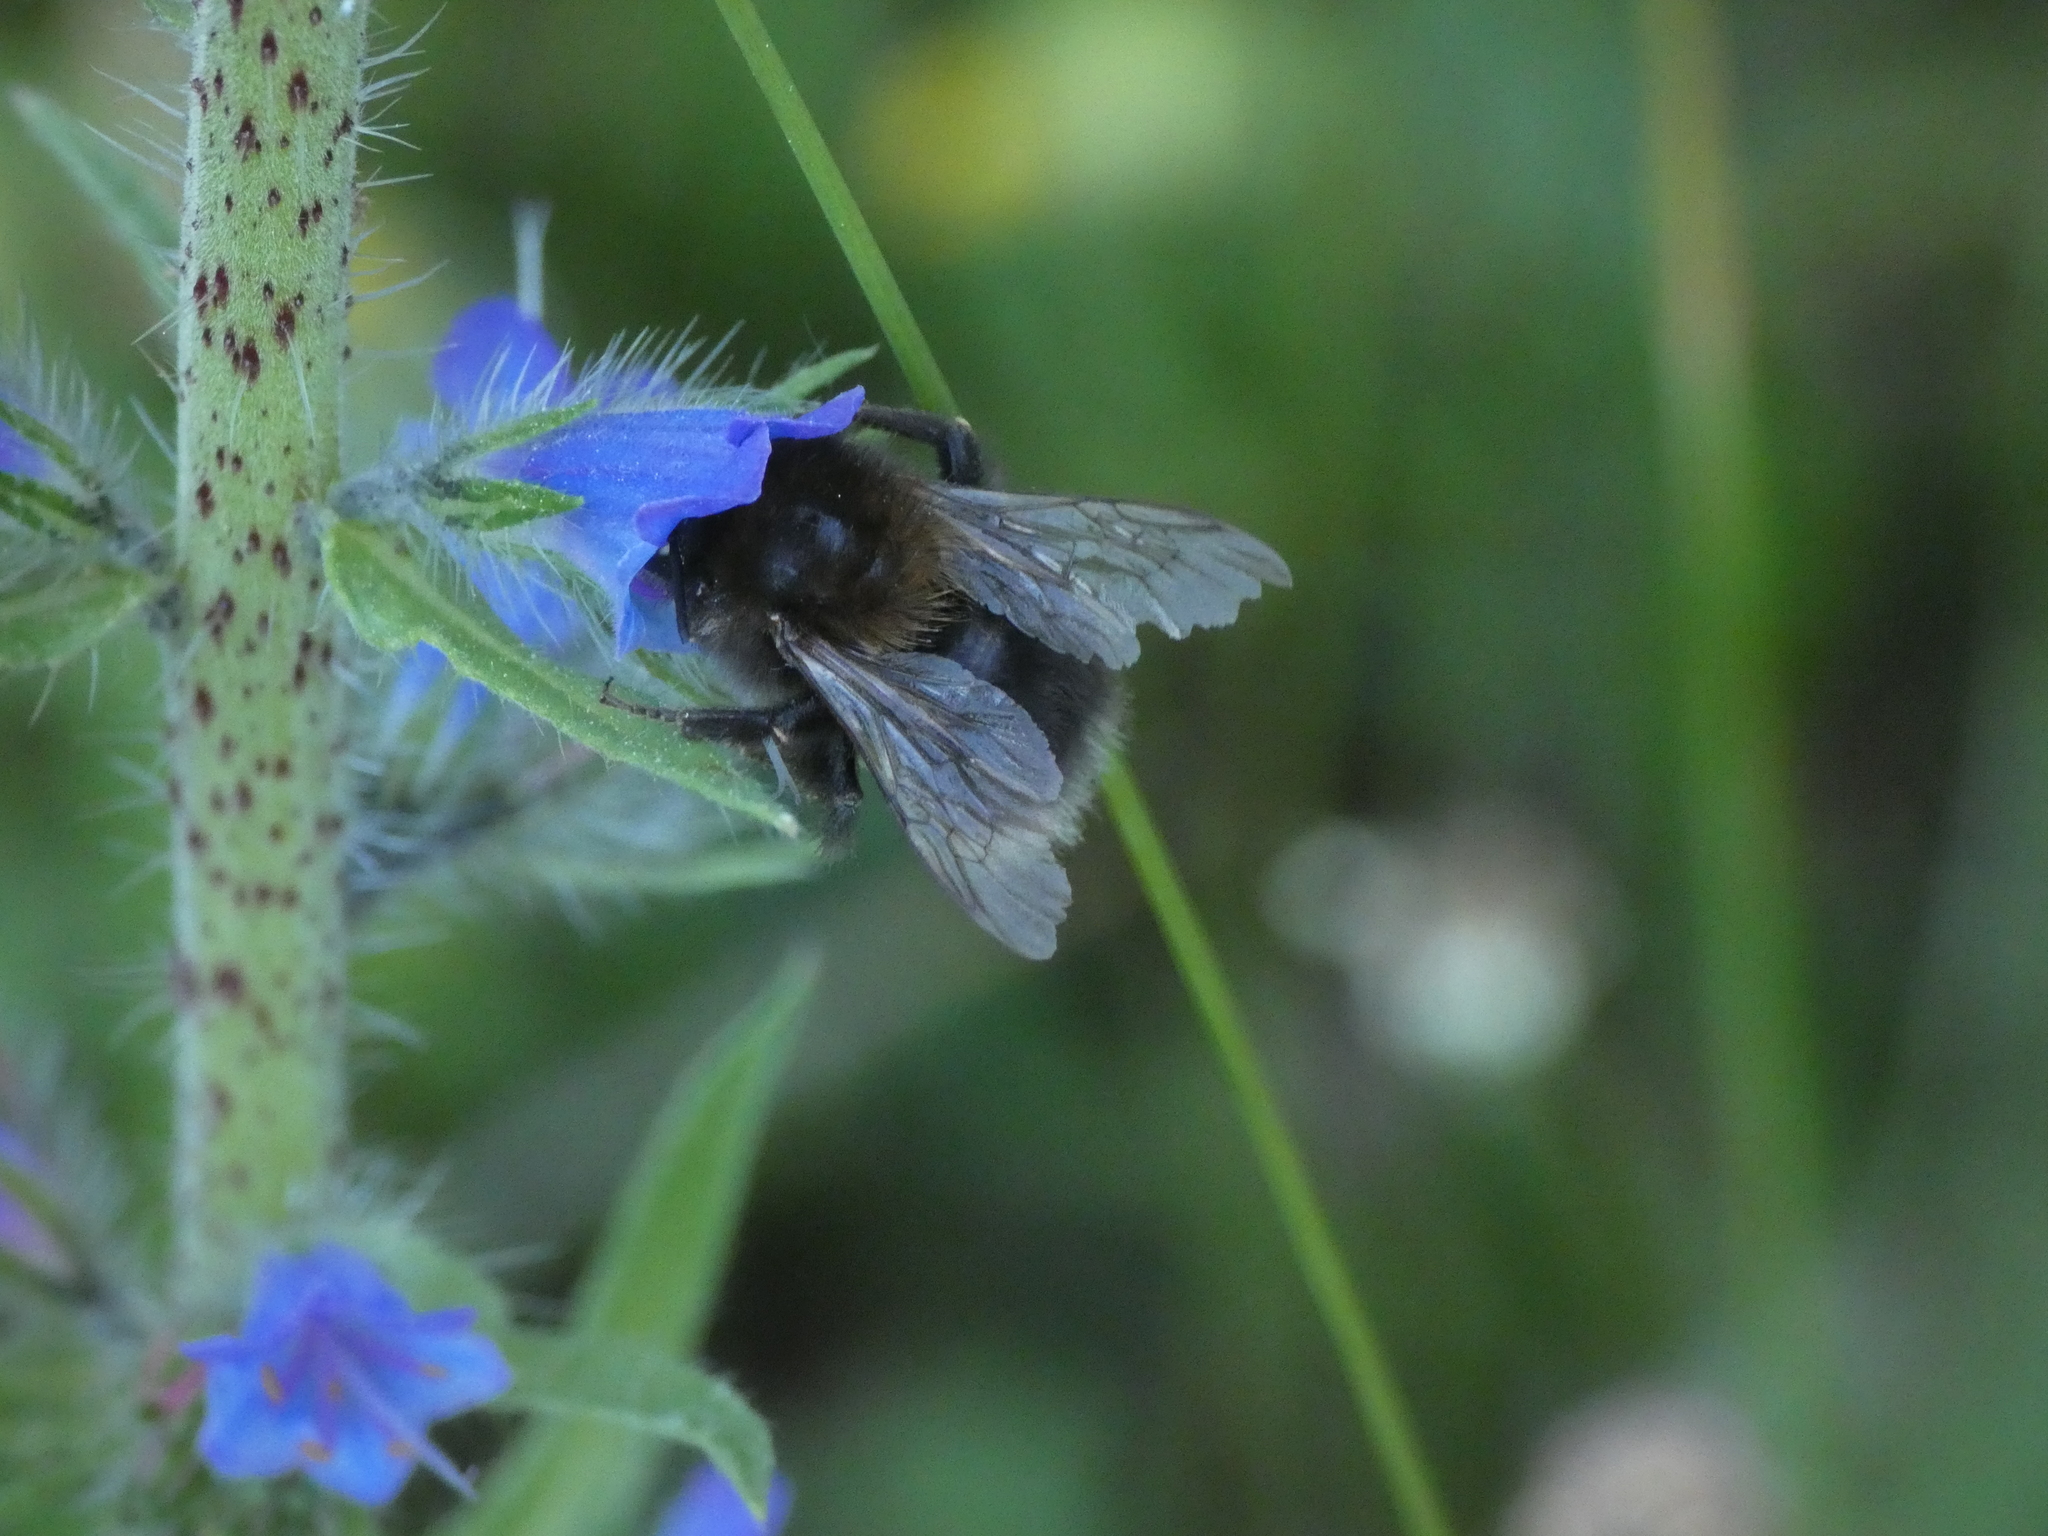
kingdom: Animalia
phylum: Arthropoda
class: Insecta
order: Hymenoptera
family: Apidae
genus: Bombus
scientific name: Bombus hypnorum
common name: New garden bumblebee
